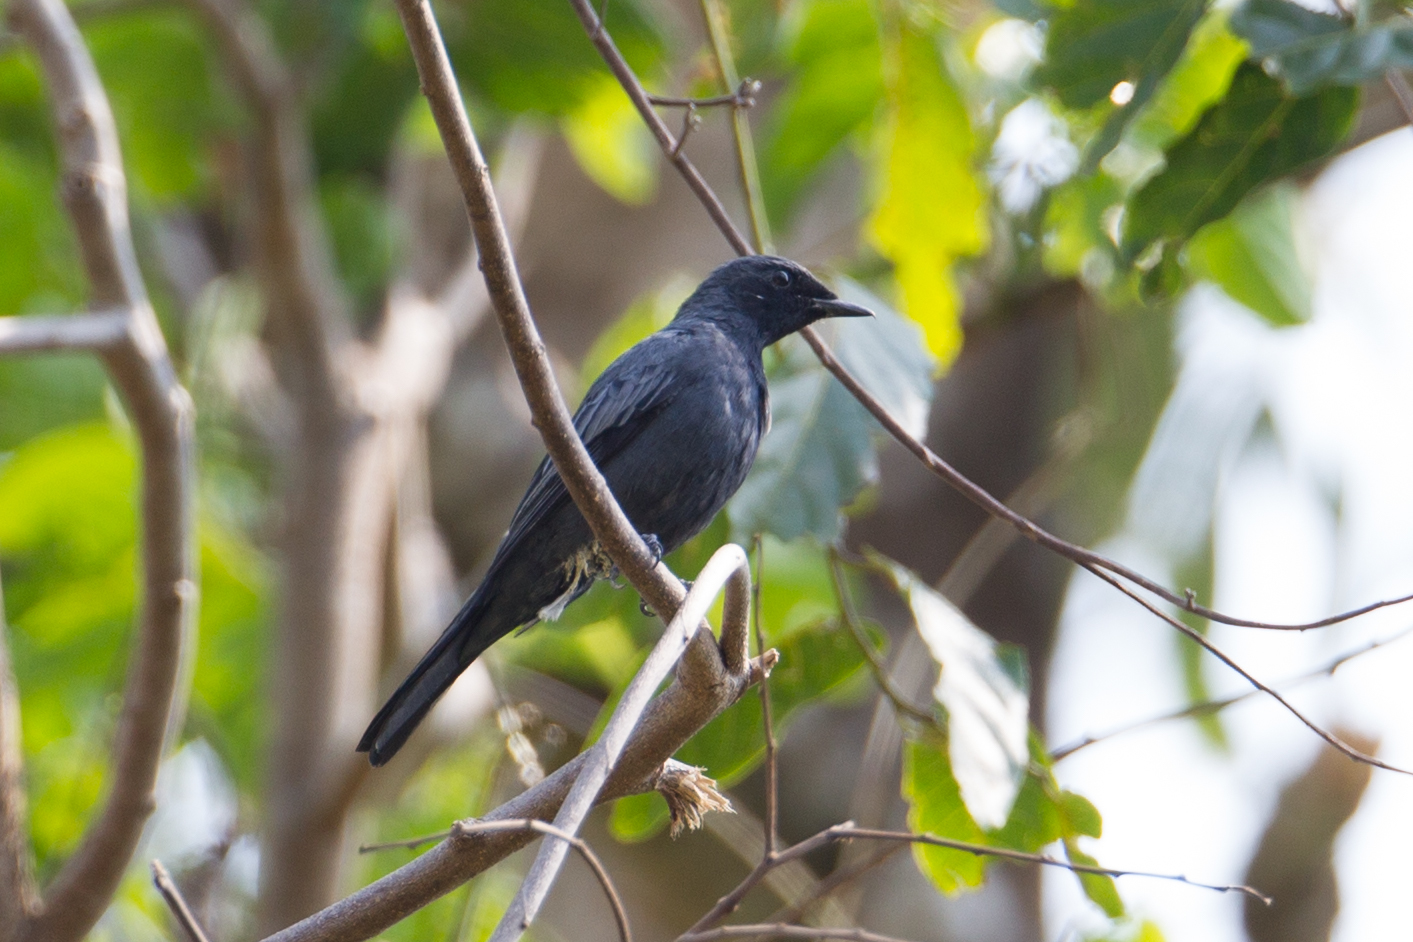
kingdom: Animalia
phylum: Chordata
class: Aves
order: Passeriformes
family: Campephagidae
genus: Coracina
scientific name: Coracina morio
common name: Sulawesi cicadabird
